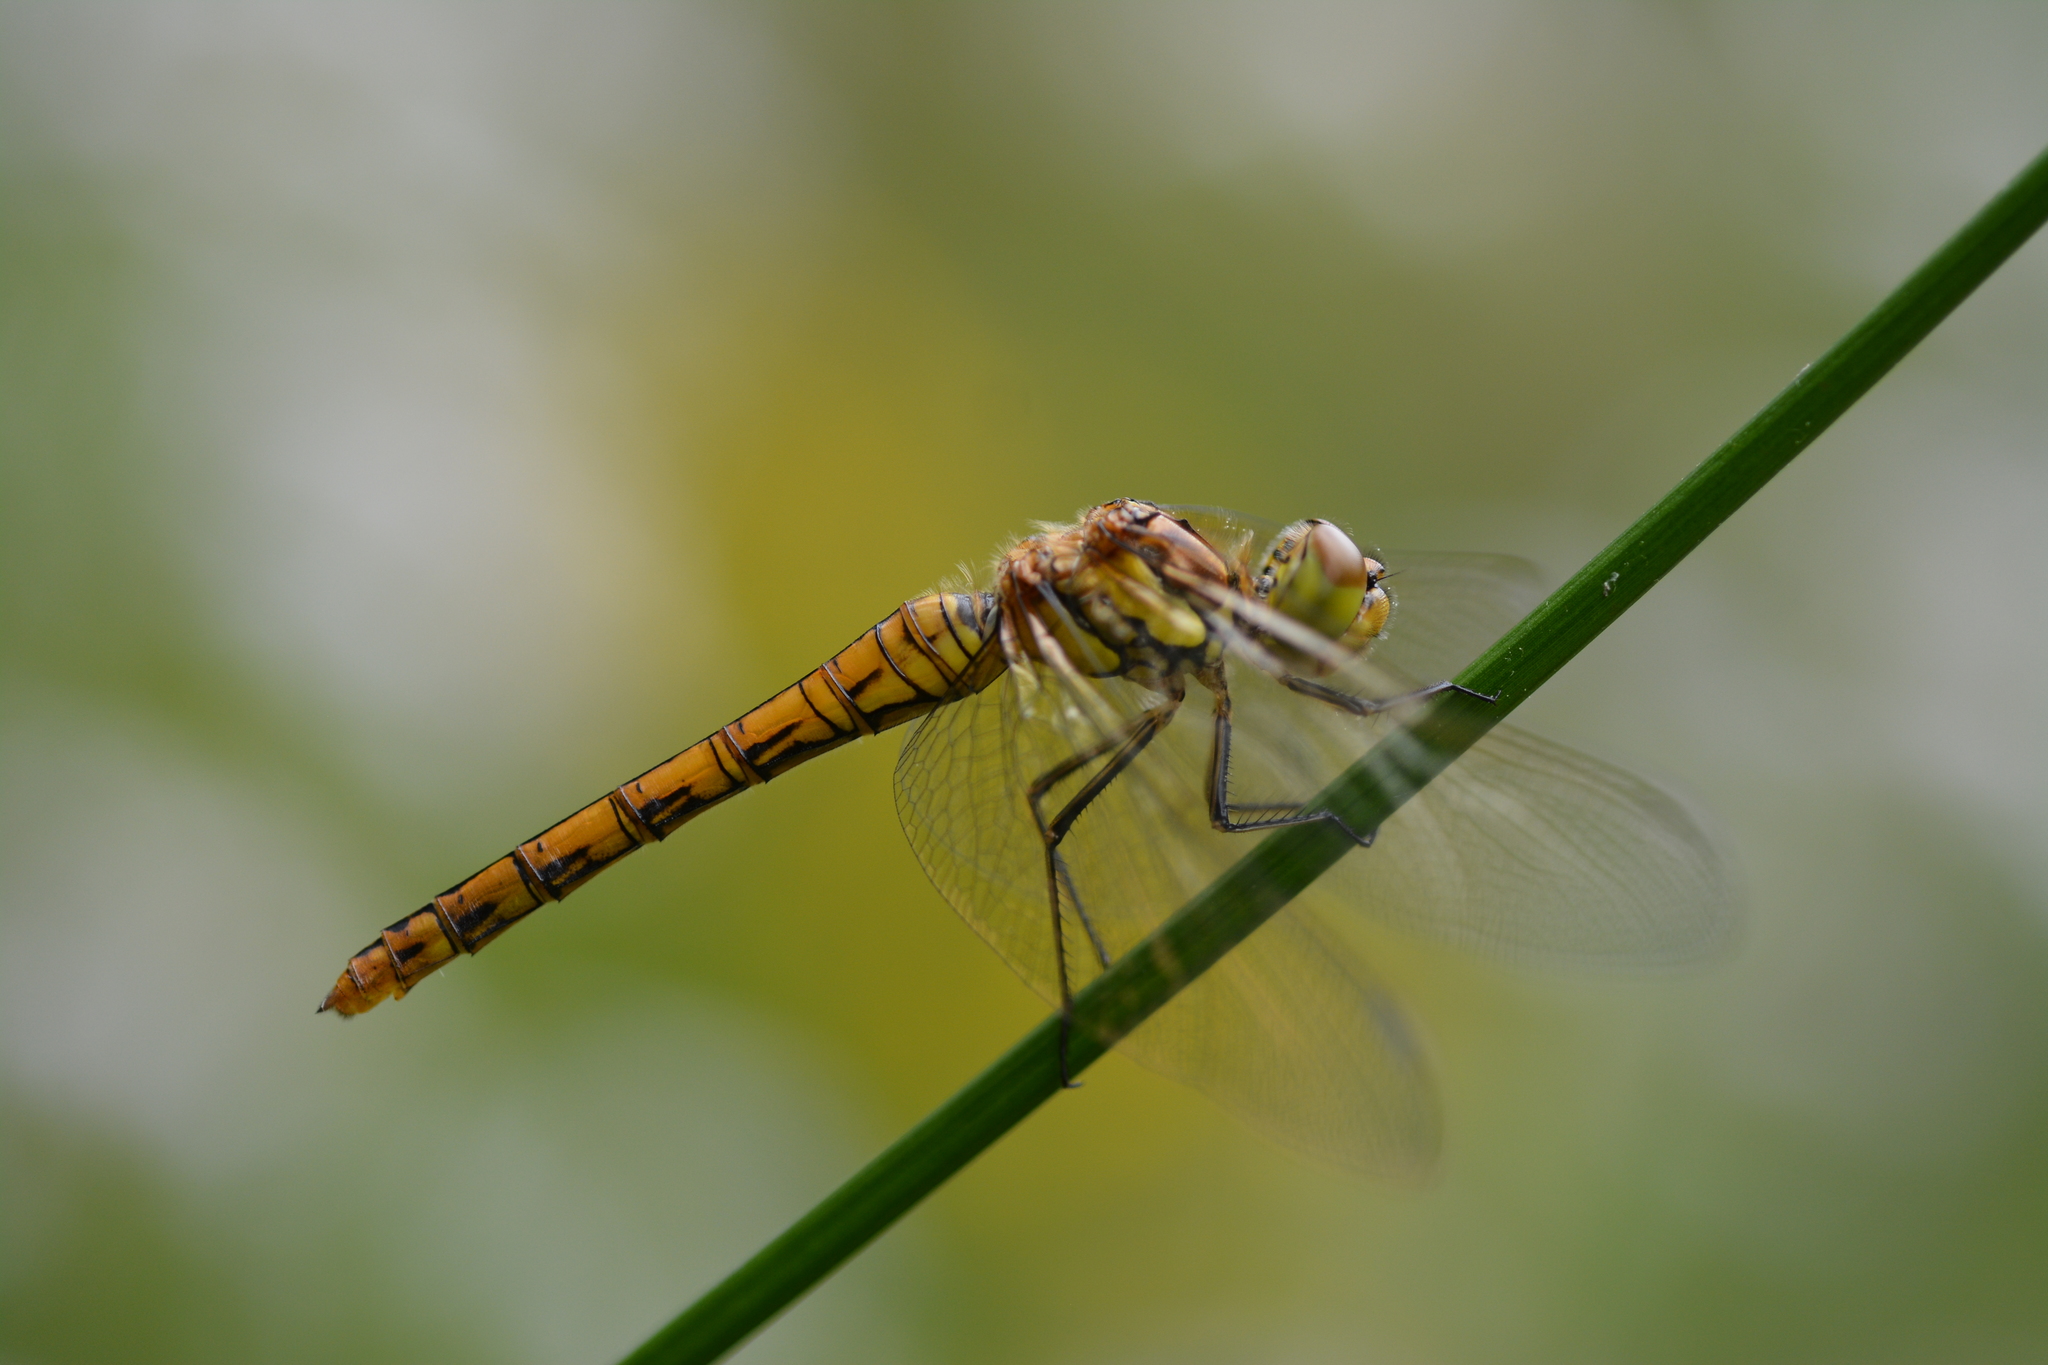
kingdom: Animalia
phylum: Arthropoda
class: Insecta
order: Odonata
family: Libellulidae
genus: Sympetrum
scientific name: Sympetrum striolatum
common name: Common darter
